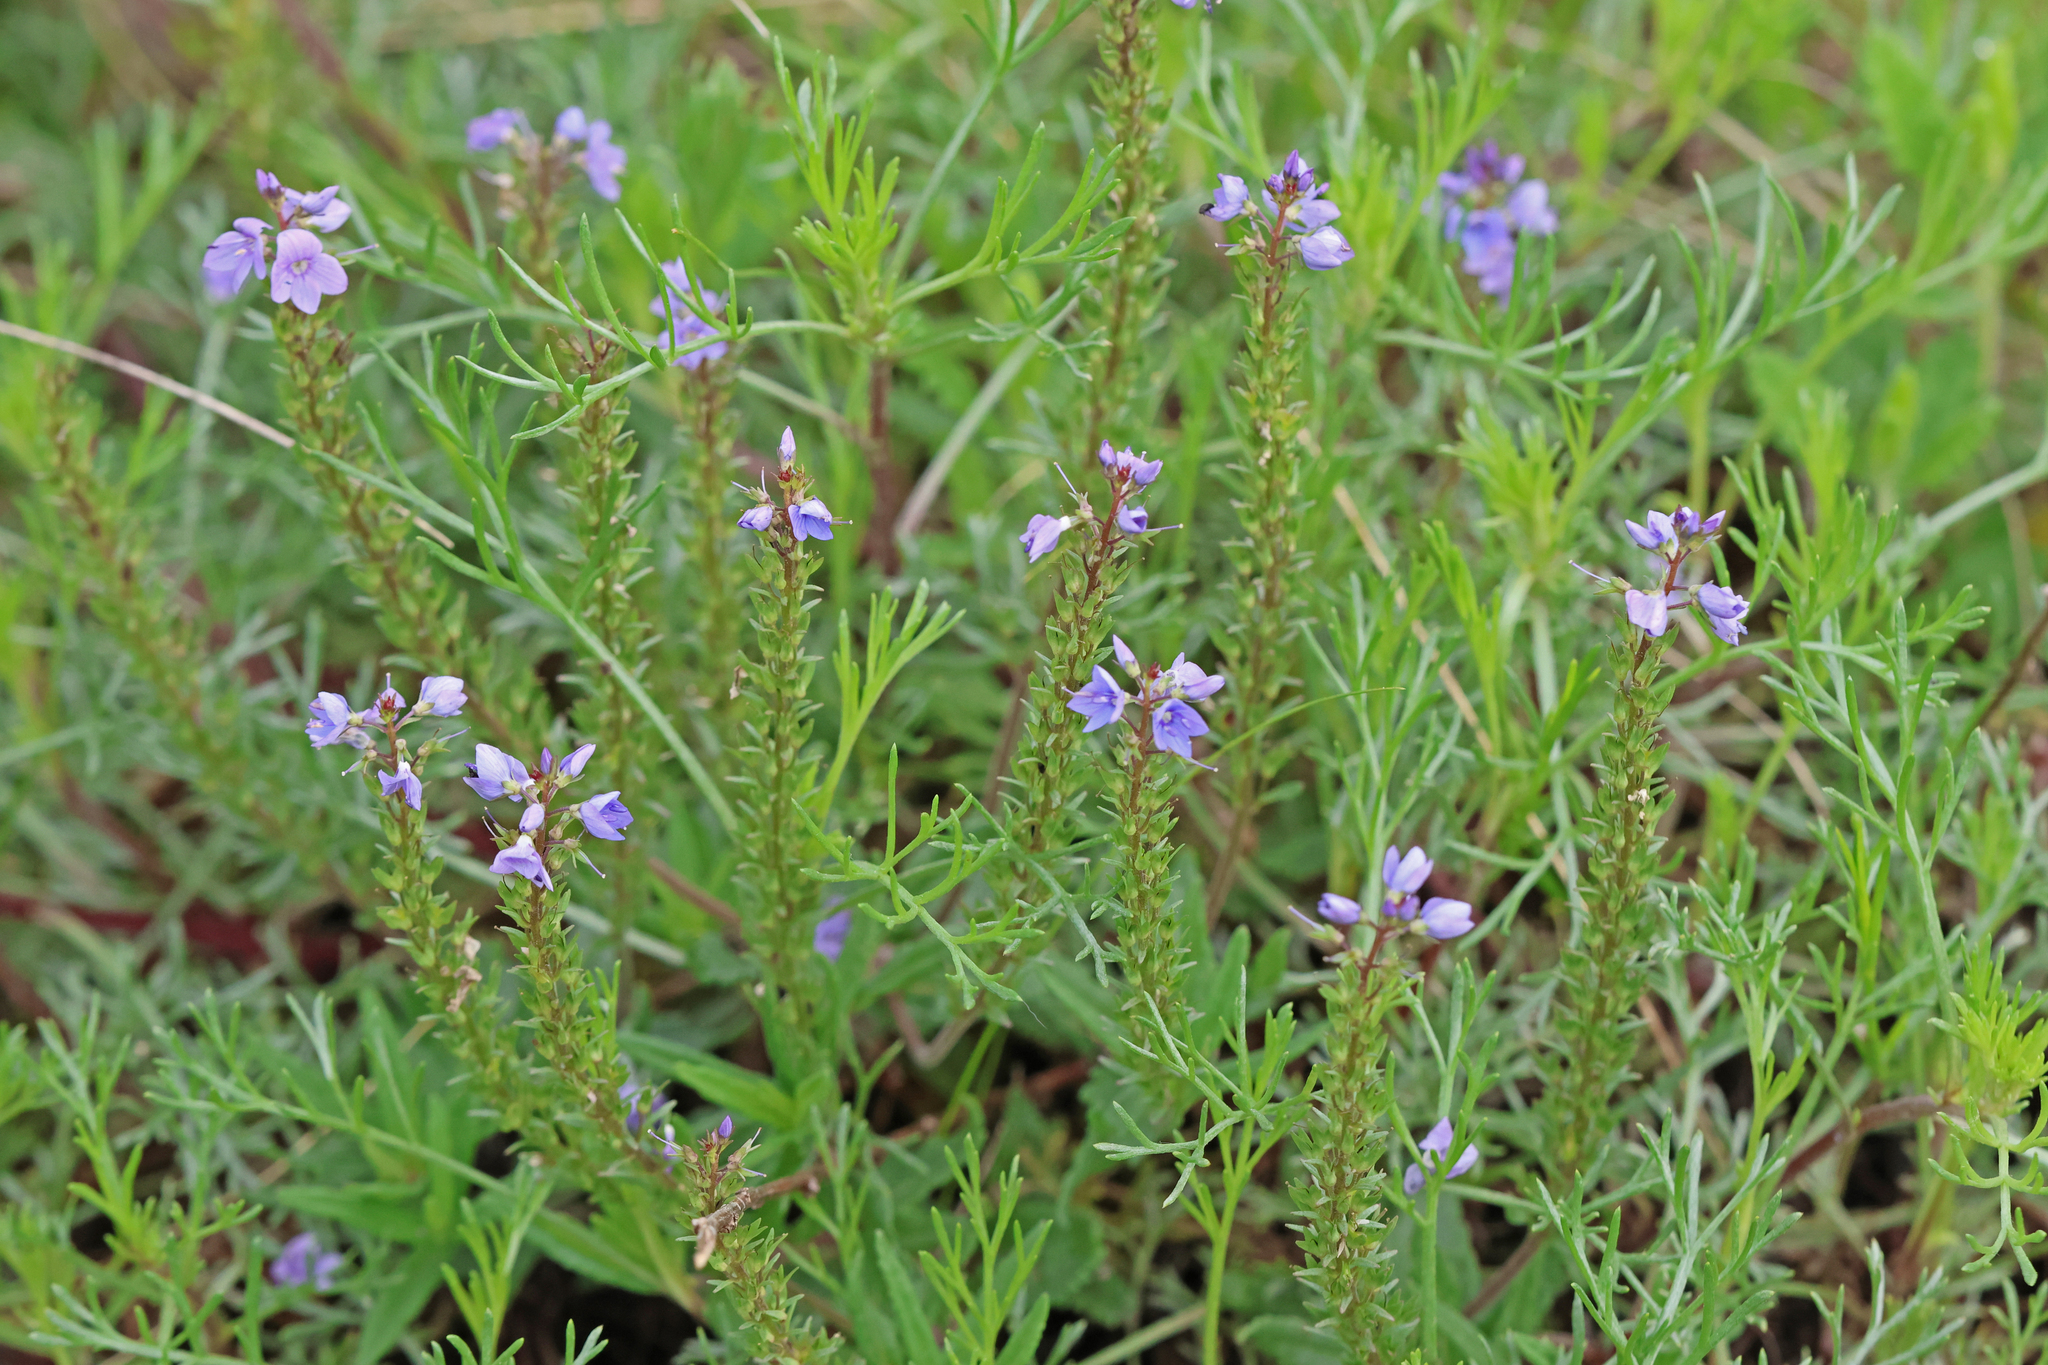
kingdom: Plantae
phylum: Tracheophyta
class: Magnoliopsida
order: Lamiales
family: Plantaginaceae
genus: Veronica
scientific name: Veronica prostrata
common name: Prostrate speedwell
